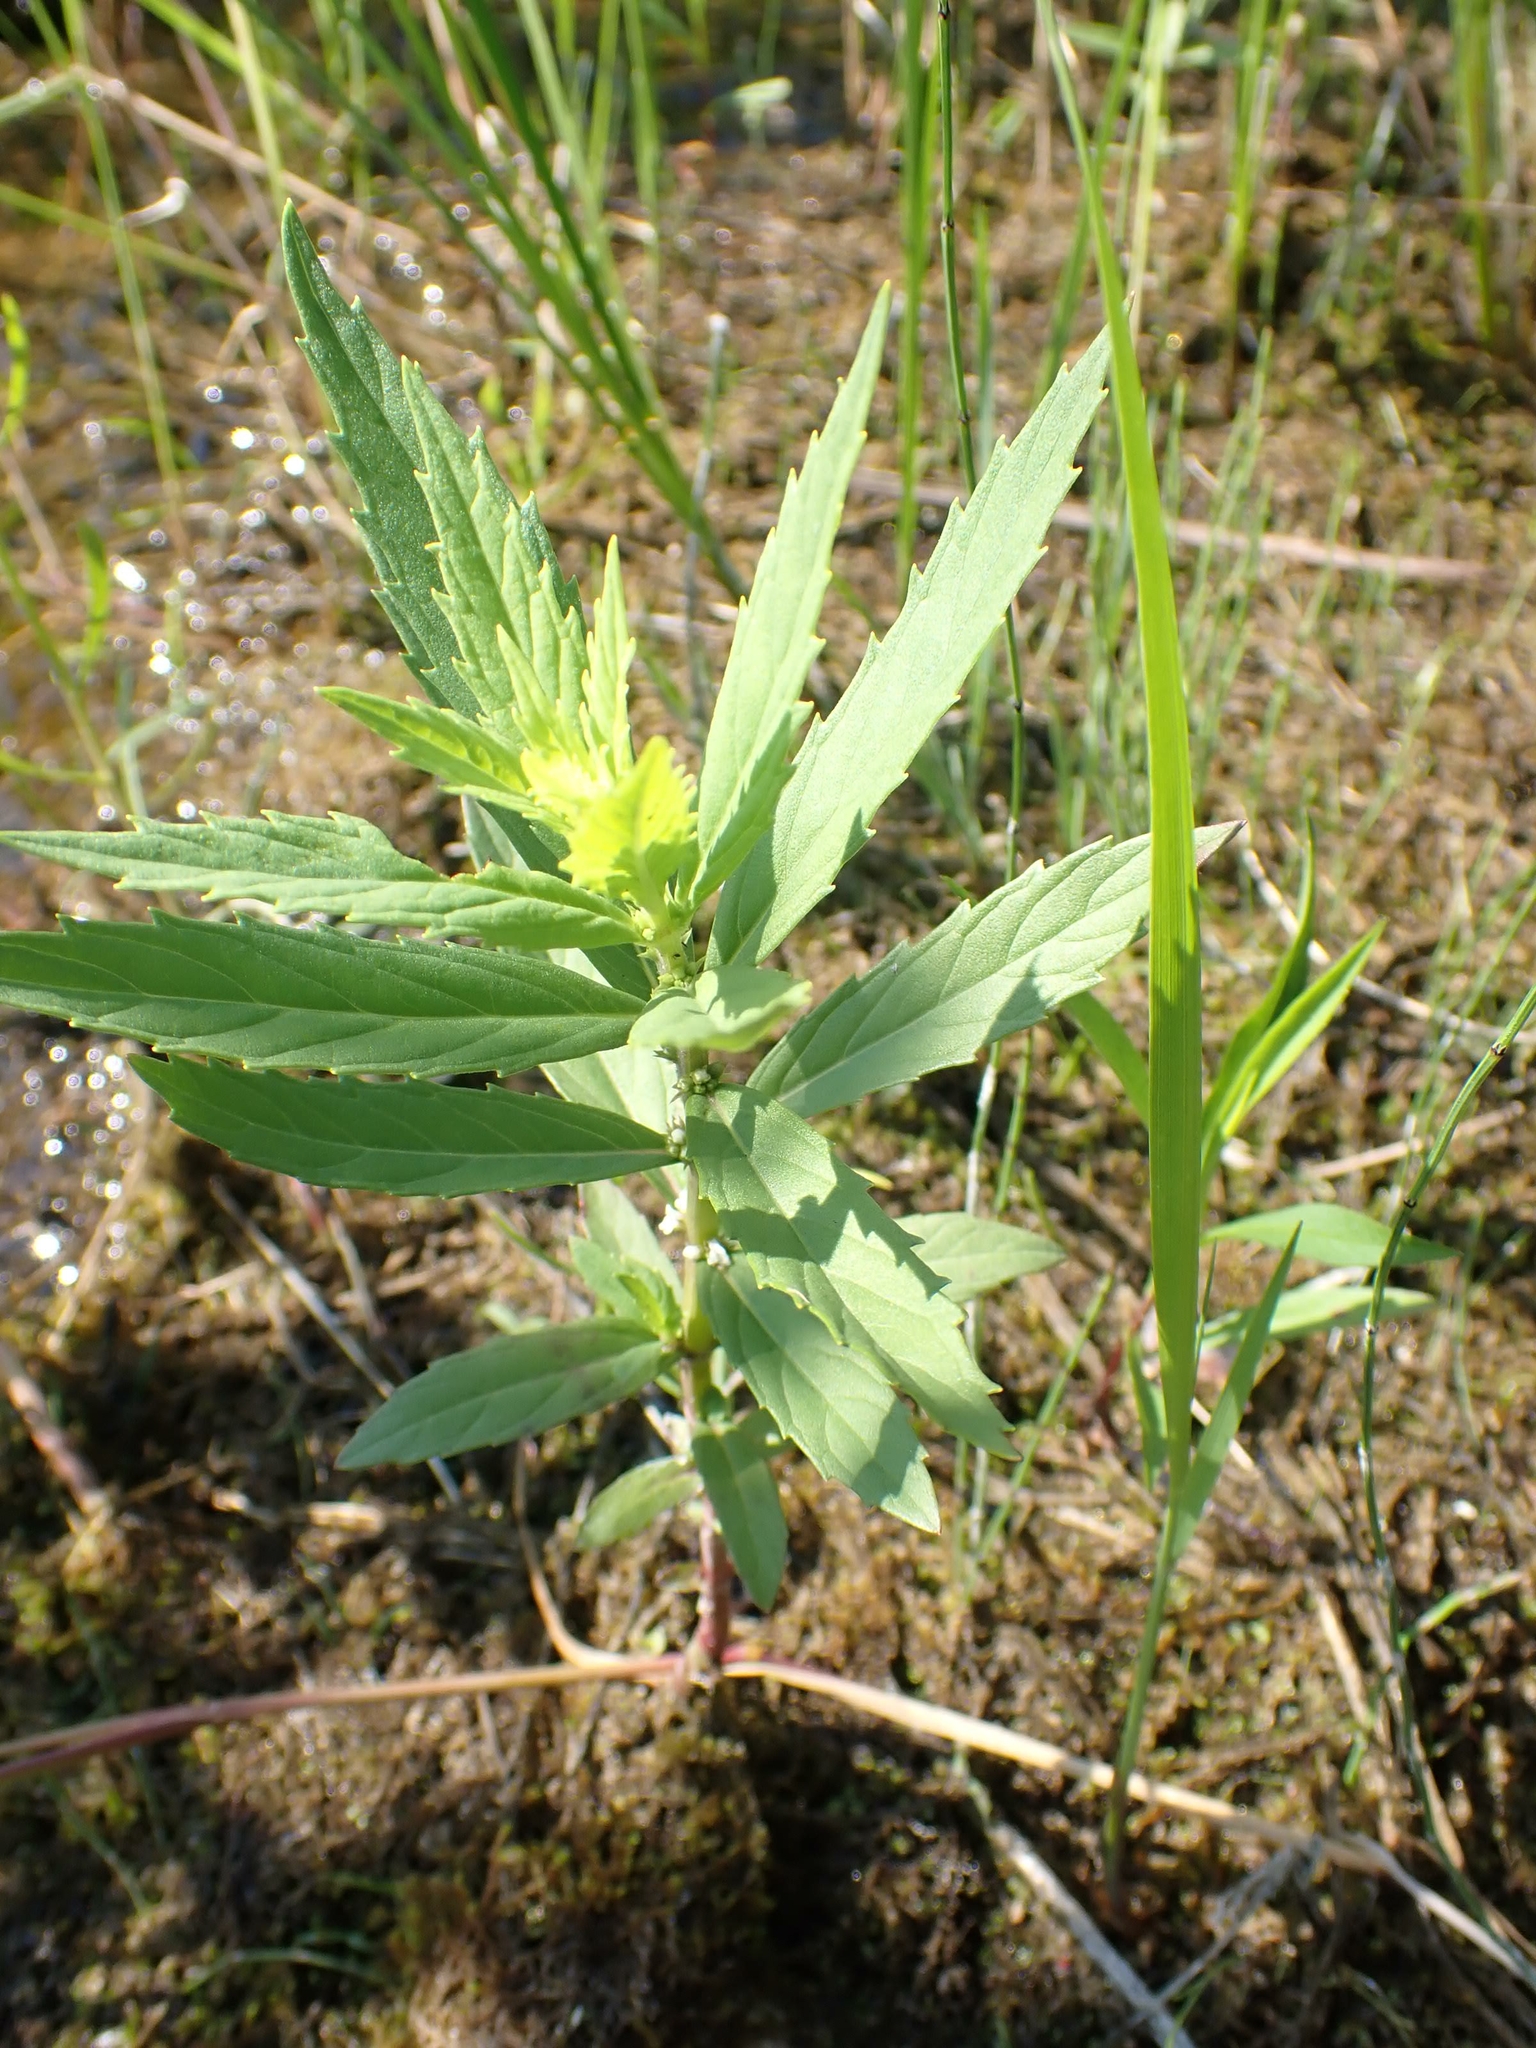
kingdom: Plantae
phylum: Tracheophyta
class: Magnoliopsida
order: Lamiales
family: Lamiaceae
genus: Lycopus
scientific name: Lycopus uniflorus
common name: Northern bugleweed
